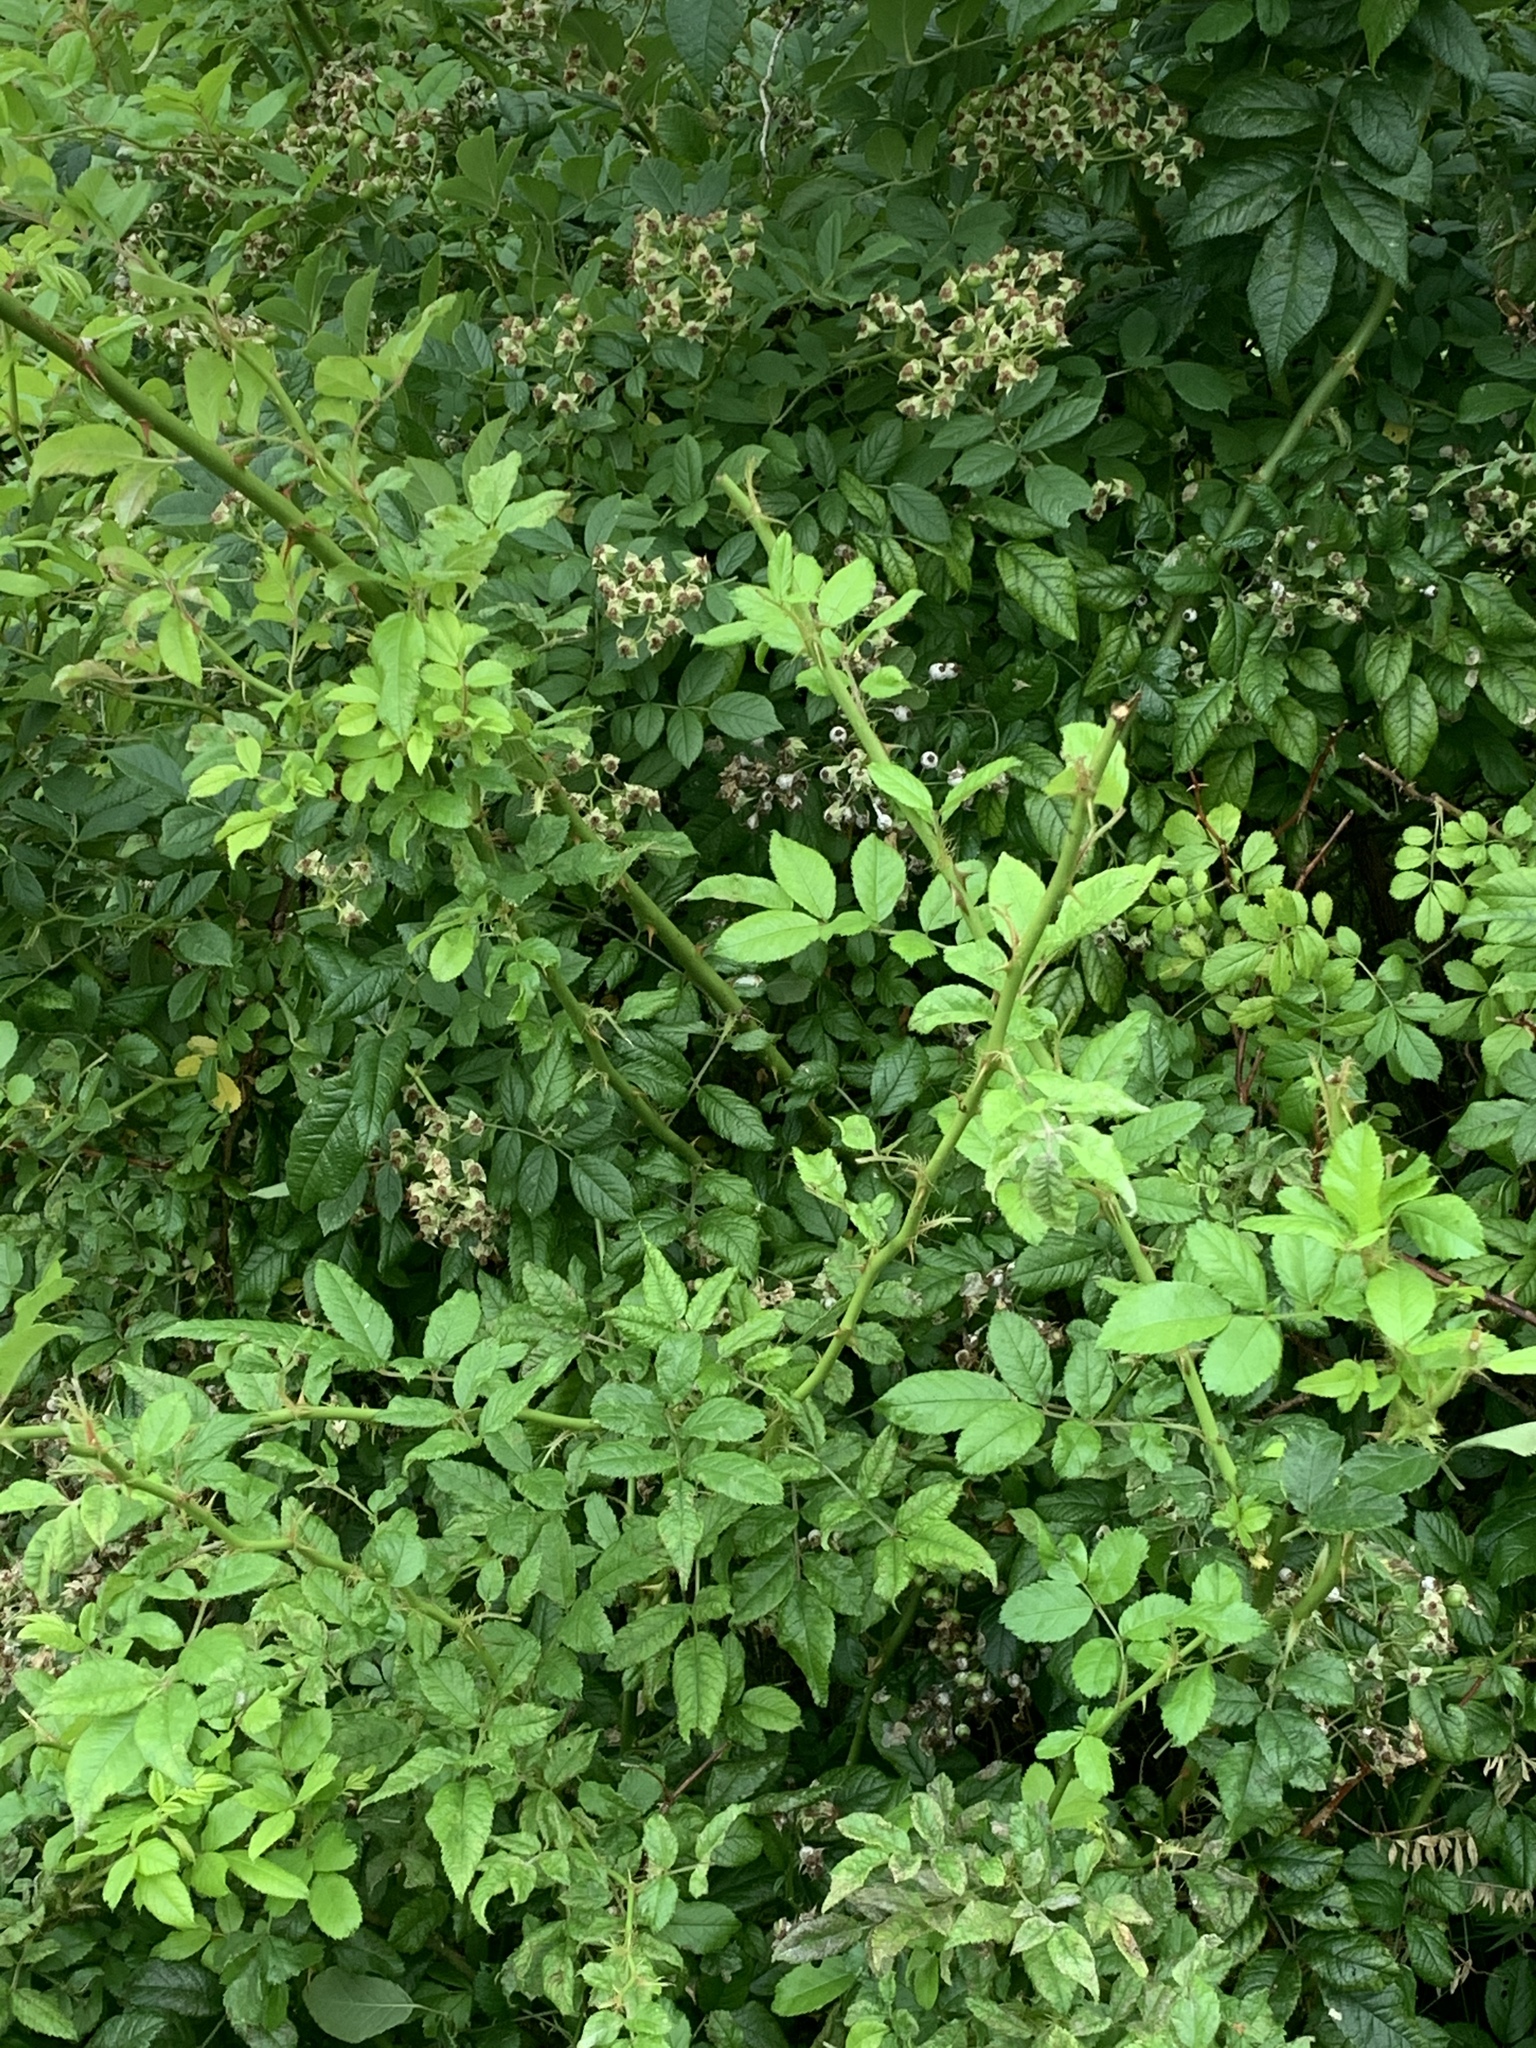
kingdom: Plantae
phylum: Tracheophyta
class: Magnoliopsida
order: Rosales
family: Rosaceae
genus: Rosa
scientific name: Rosa multiflora
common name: Multiflora rose
